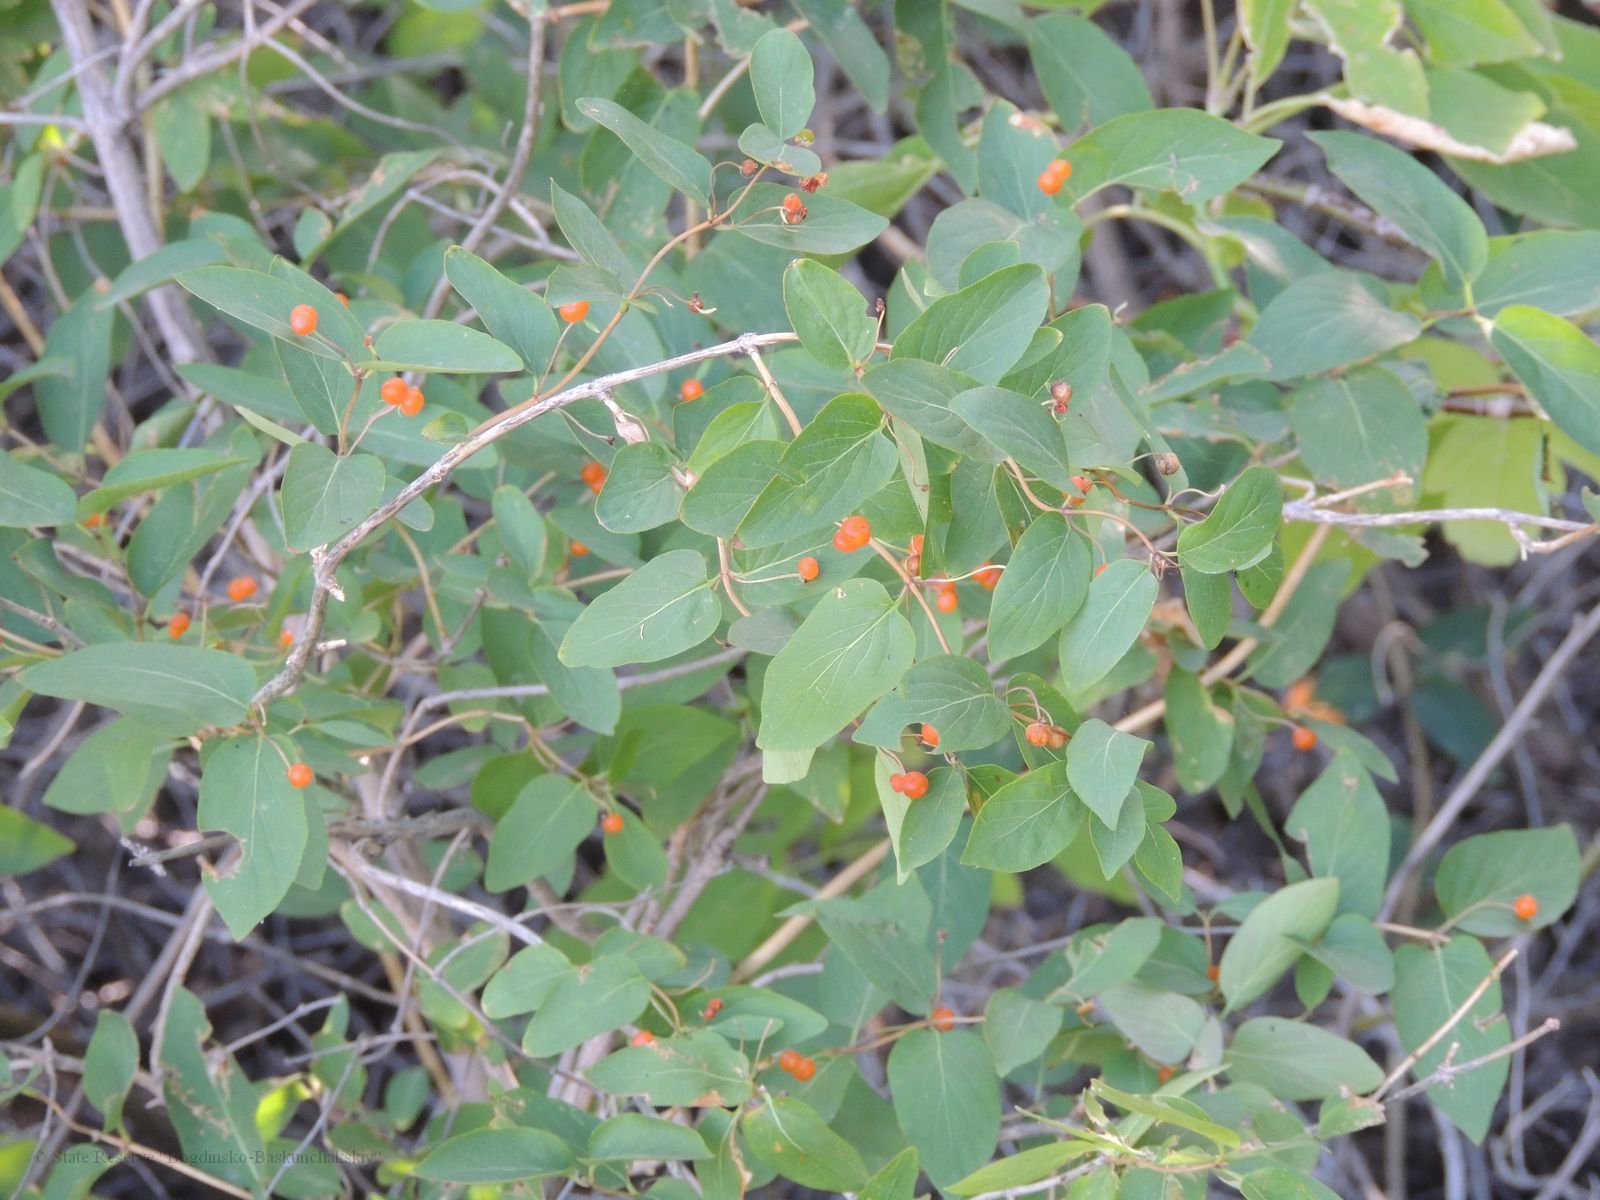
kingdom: Plantae
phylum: Tracheophyta
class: Magnoliopsida
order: Dipsacales
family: Caprifoliaceae
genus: Lonicera
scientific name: Lonicera tatarica
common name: Tatarian honeysuckle
